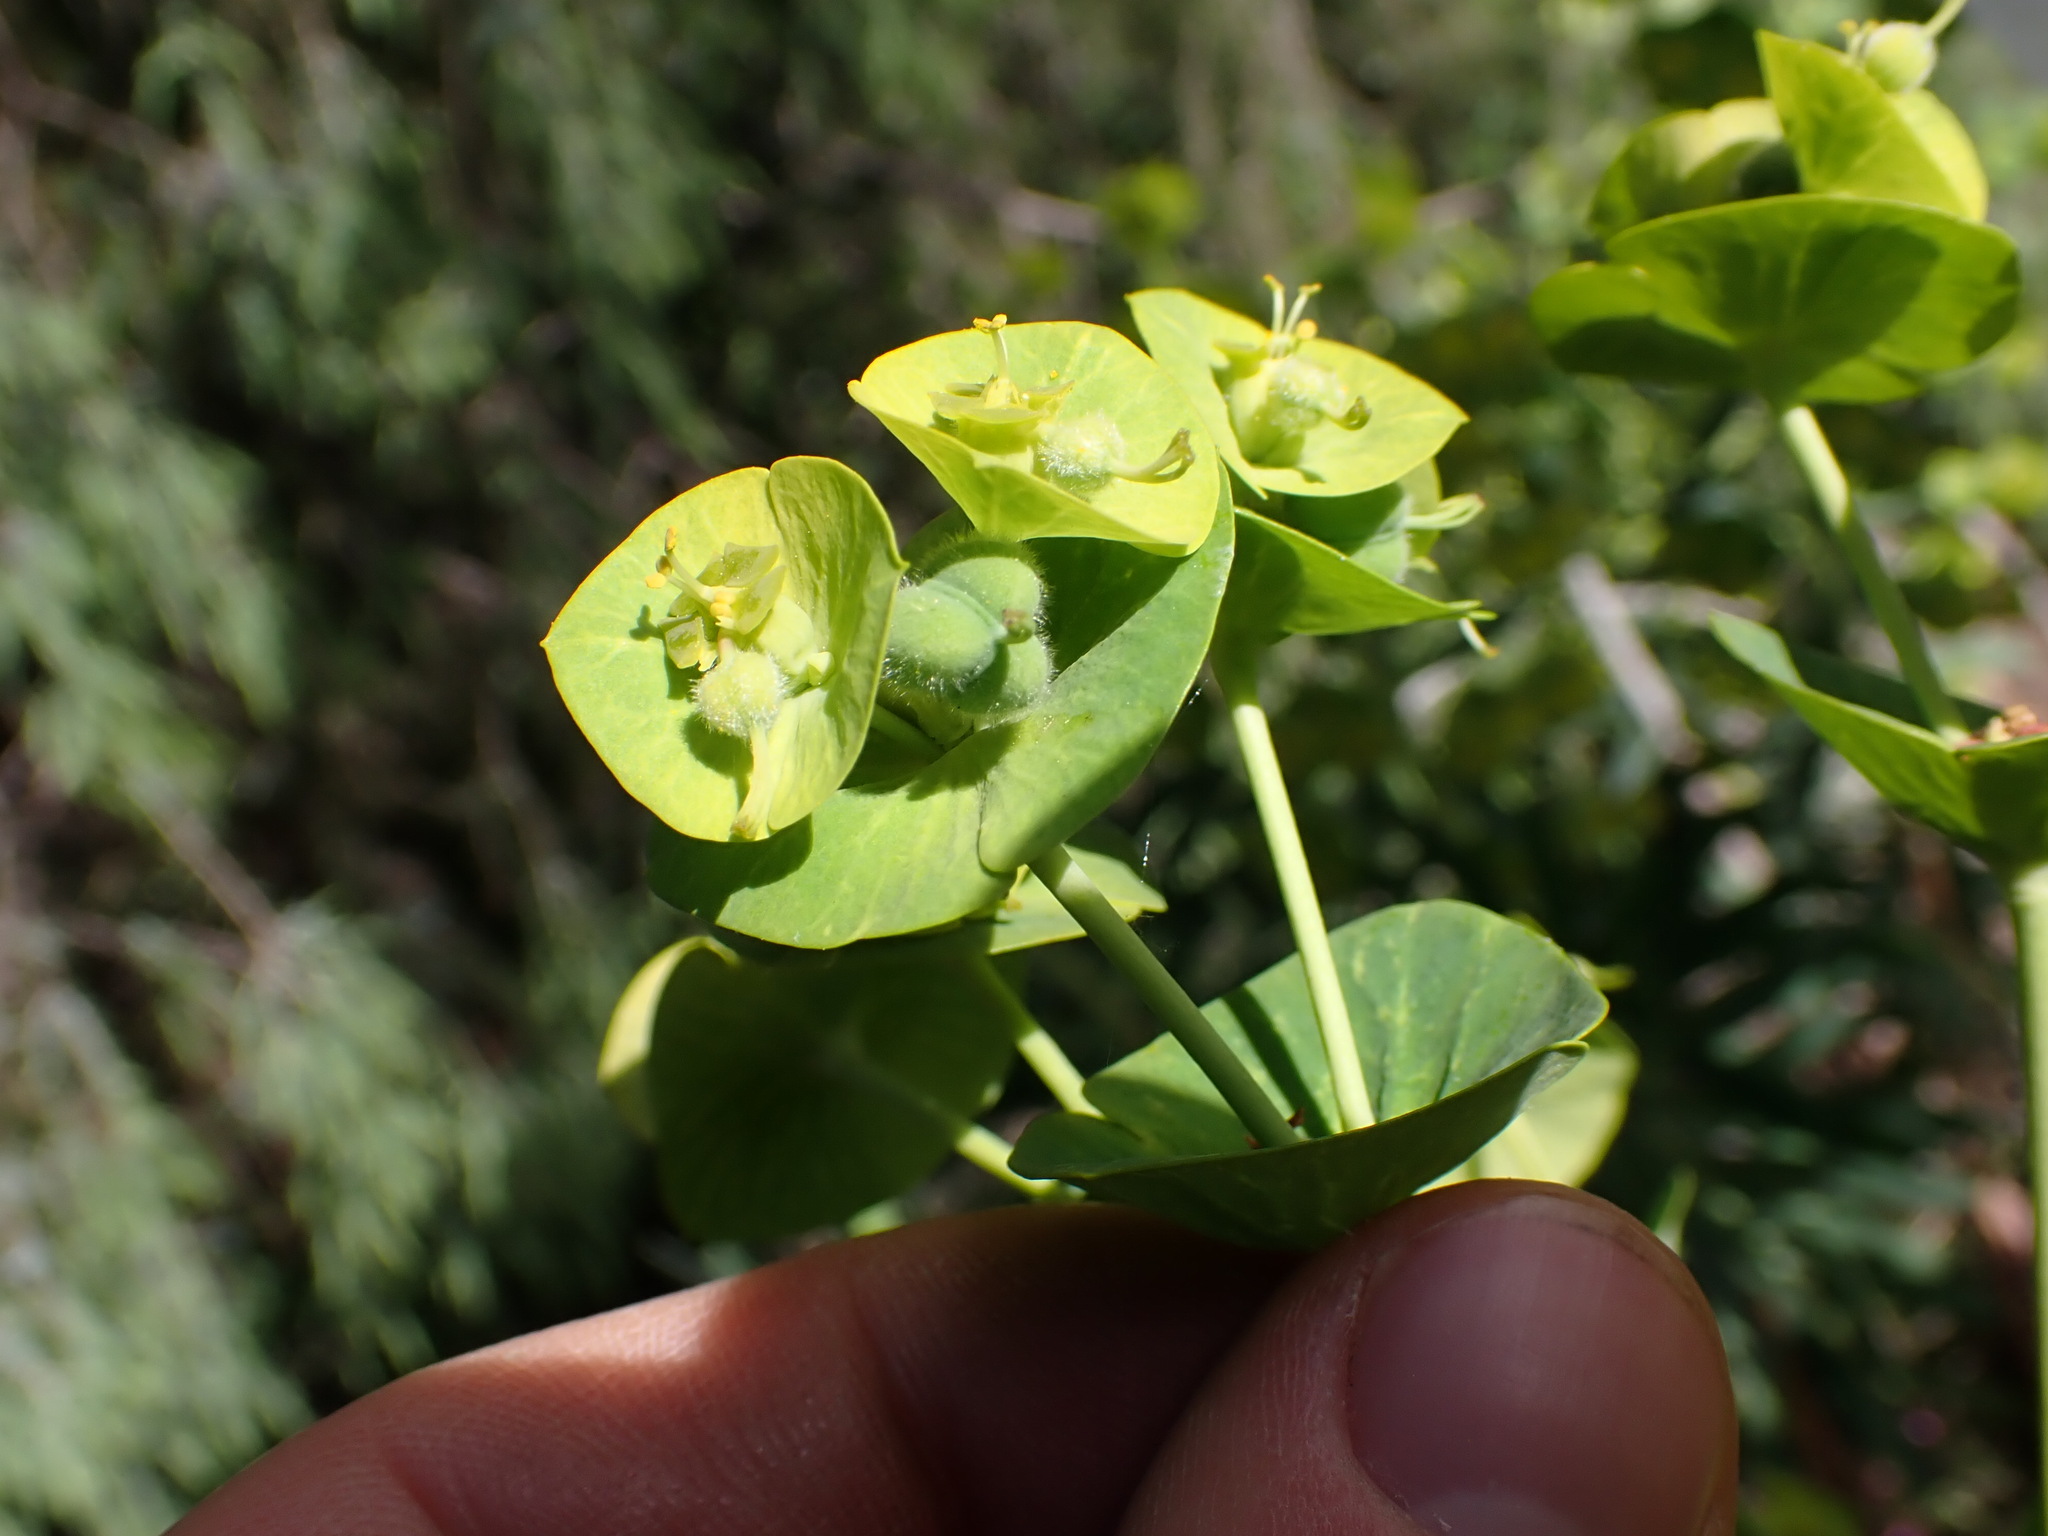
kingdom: Plantae
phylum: Tracheophyta
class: Magnoliopsida
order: Malpighiales
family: Euphorbiaceae
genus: Euphorbia
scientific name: Euphorbia characias
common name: Mediterranean spurge
